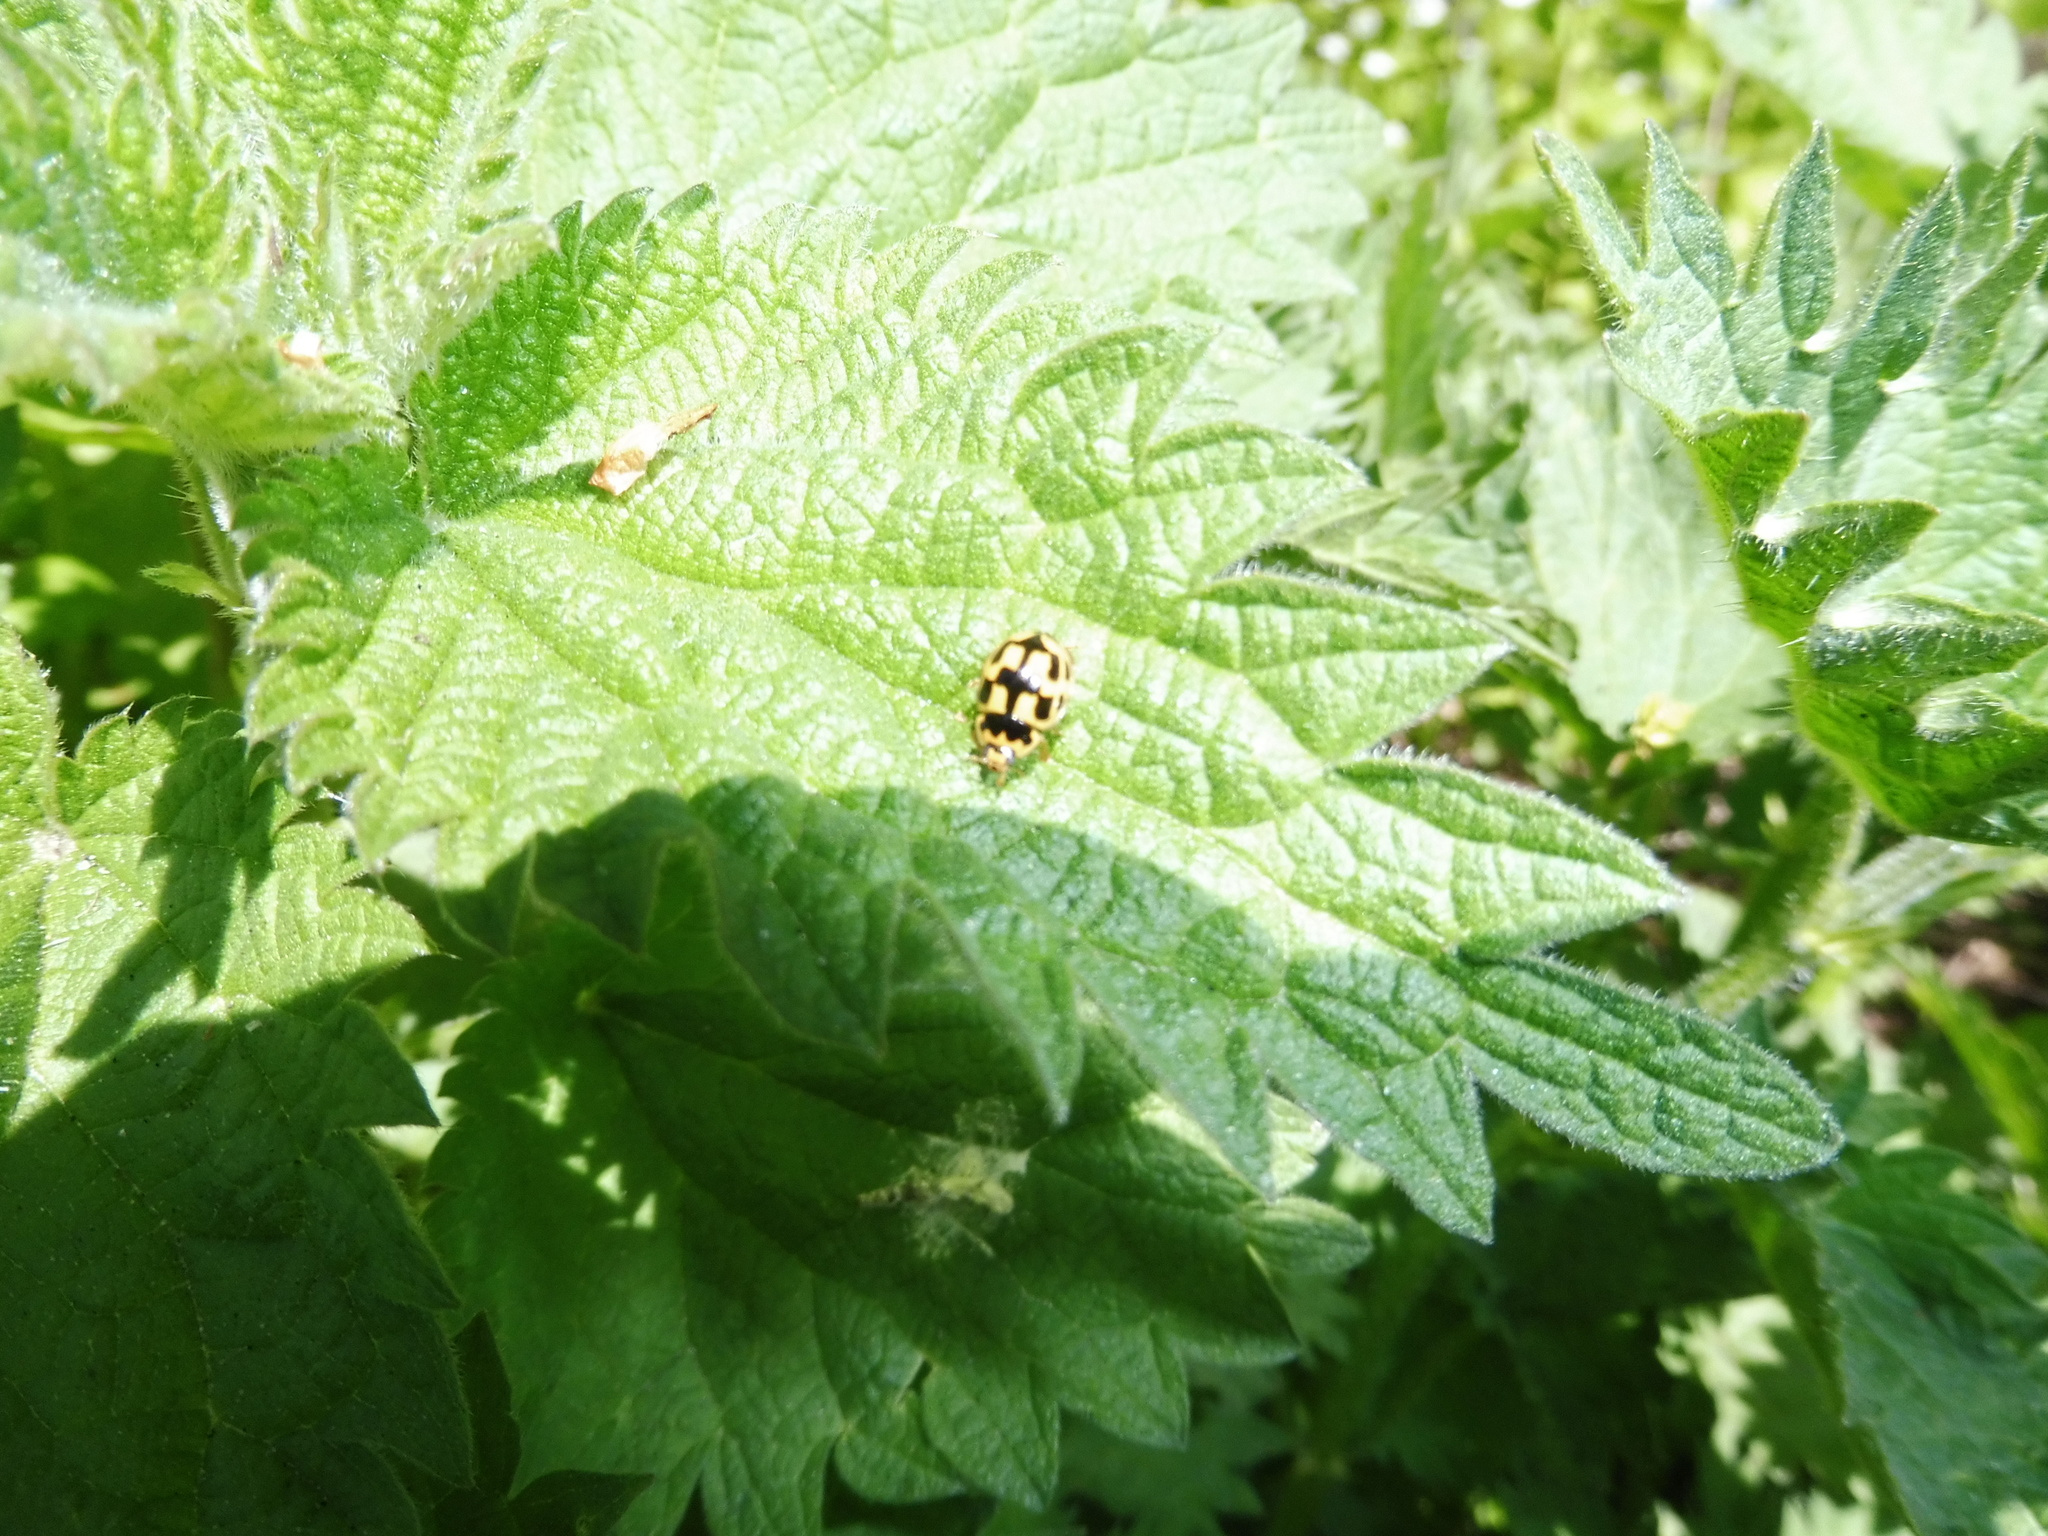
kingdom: Animalia
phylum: Arthropoda
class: Insecta
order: Coleoptera
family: Coccinellidae
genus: Propylaea
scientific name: Propylaea quatuordecimpunctata
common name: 14-spotted ladybird beetle
